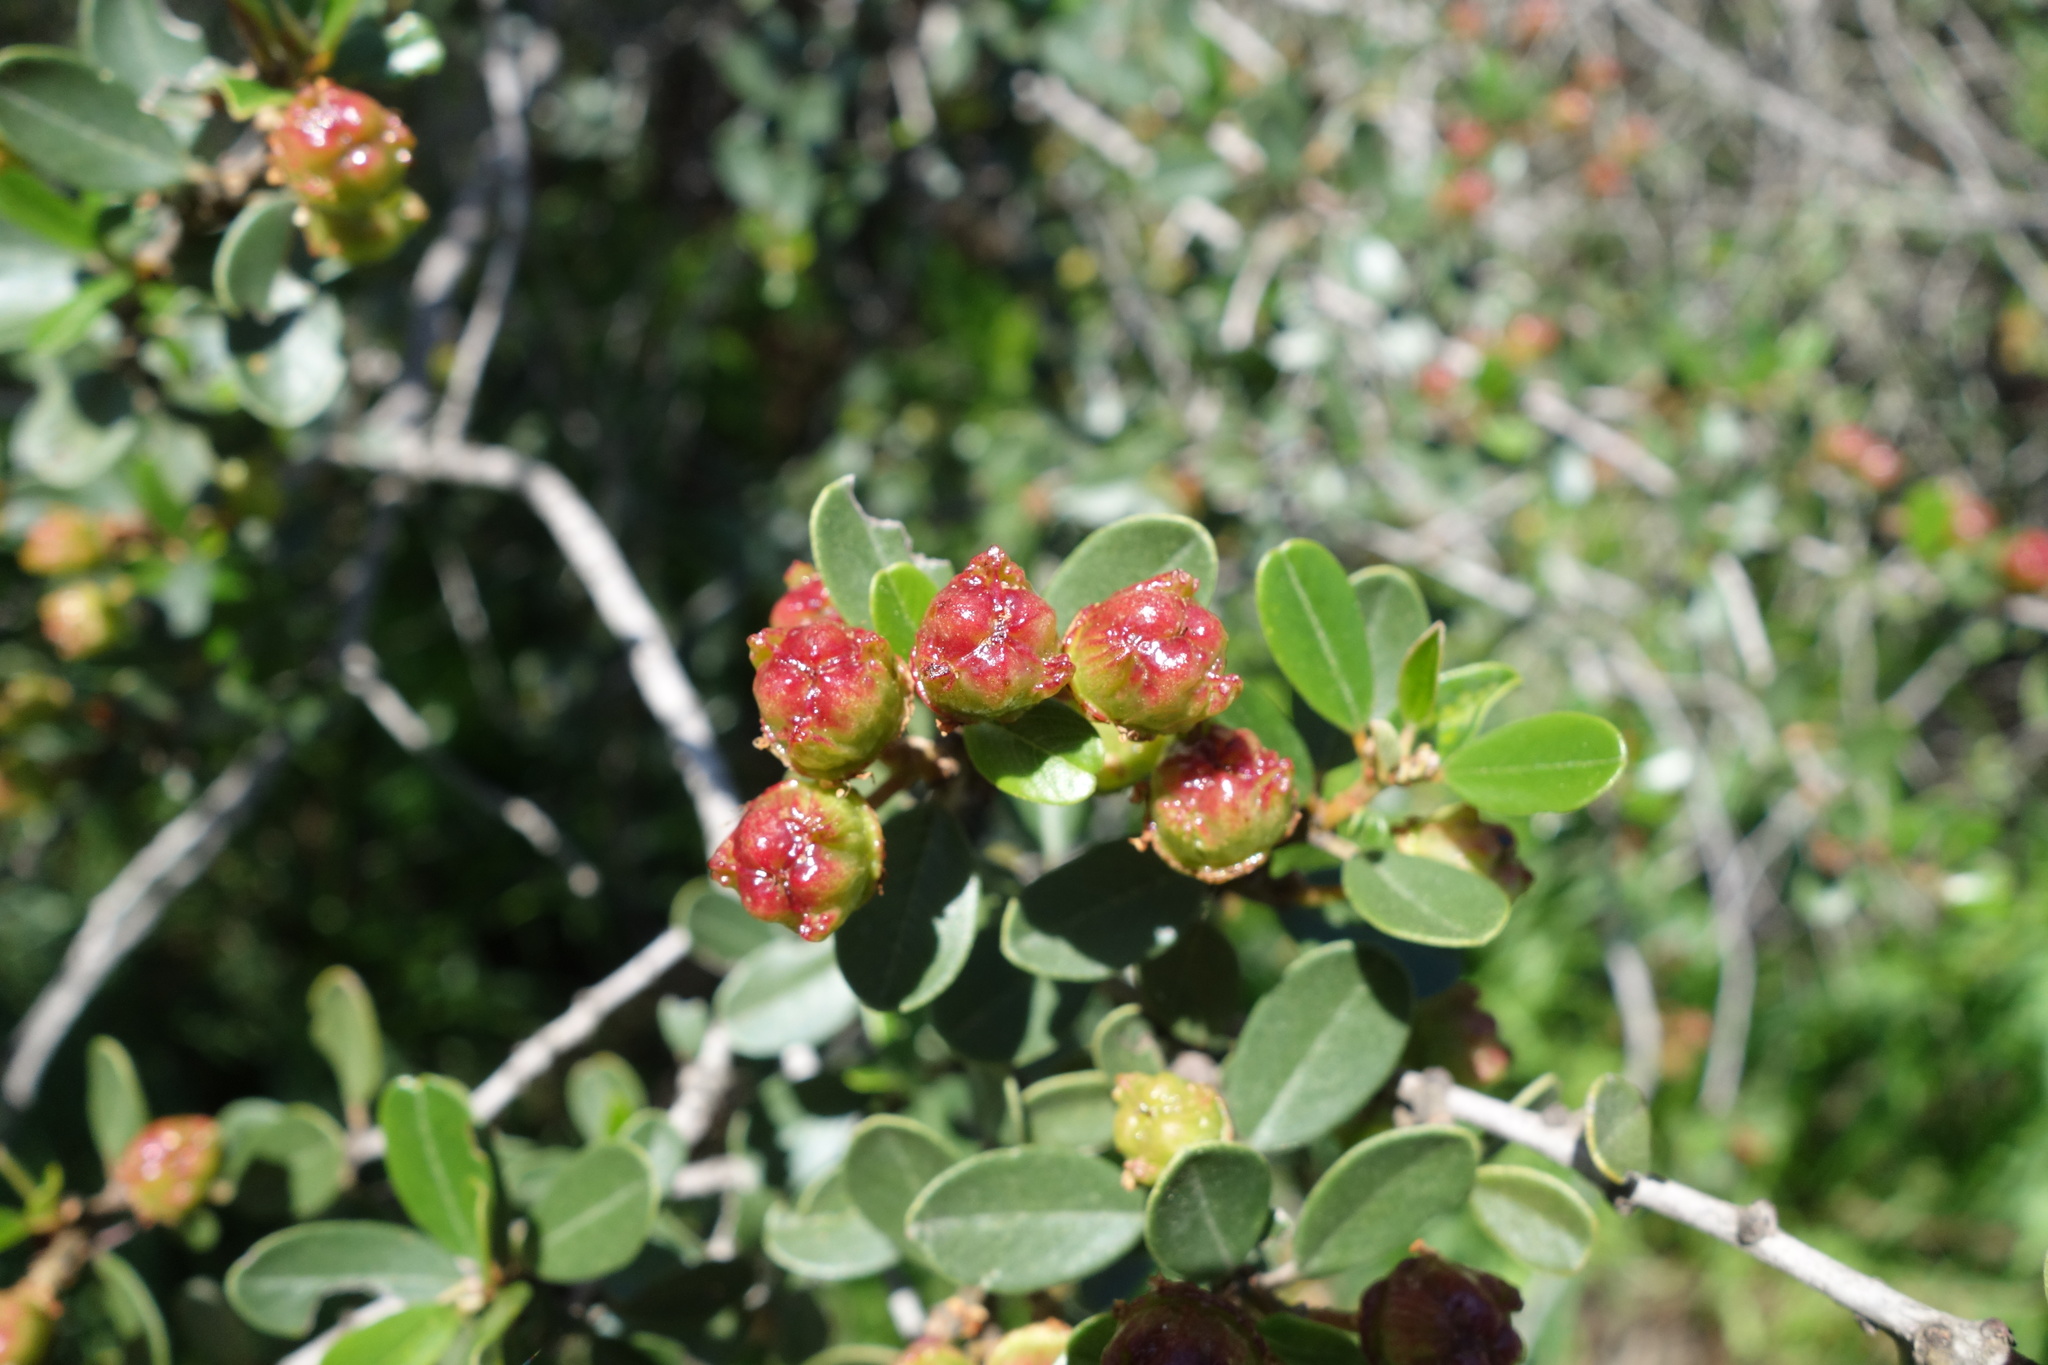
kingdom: Plantae
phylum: Tracheophyta
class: Magnoliopsida
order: Rosales
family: Rhamnaceae
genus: Ceanothus
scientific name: Ceanothus megacarpus
